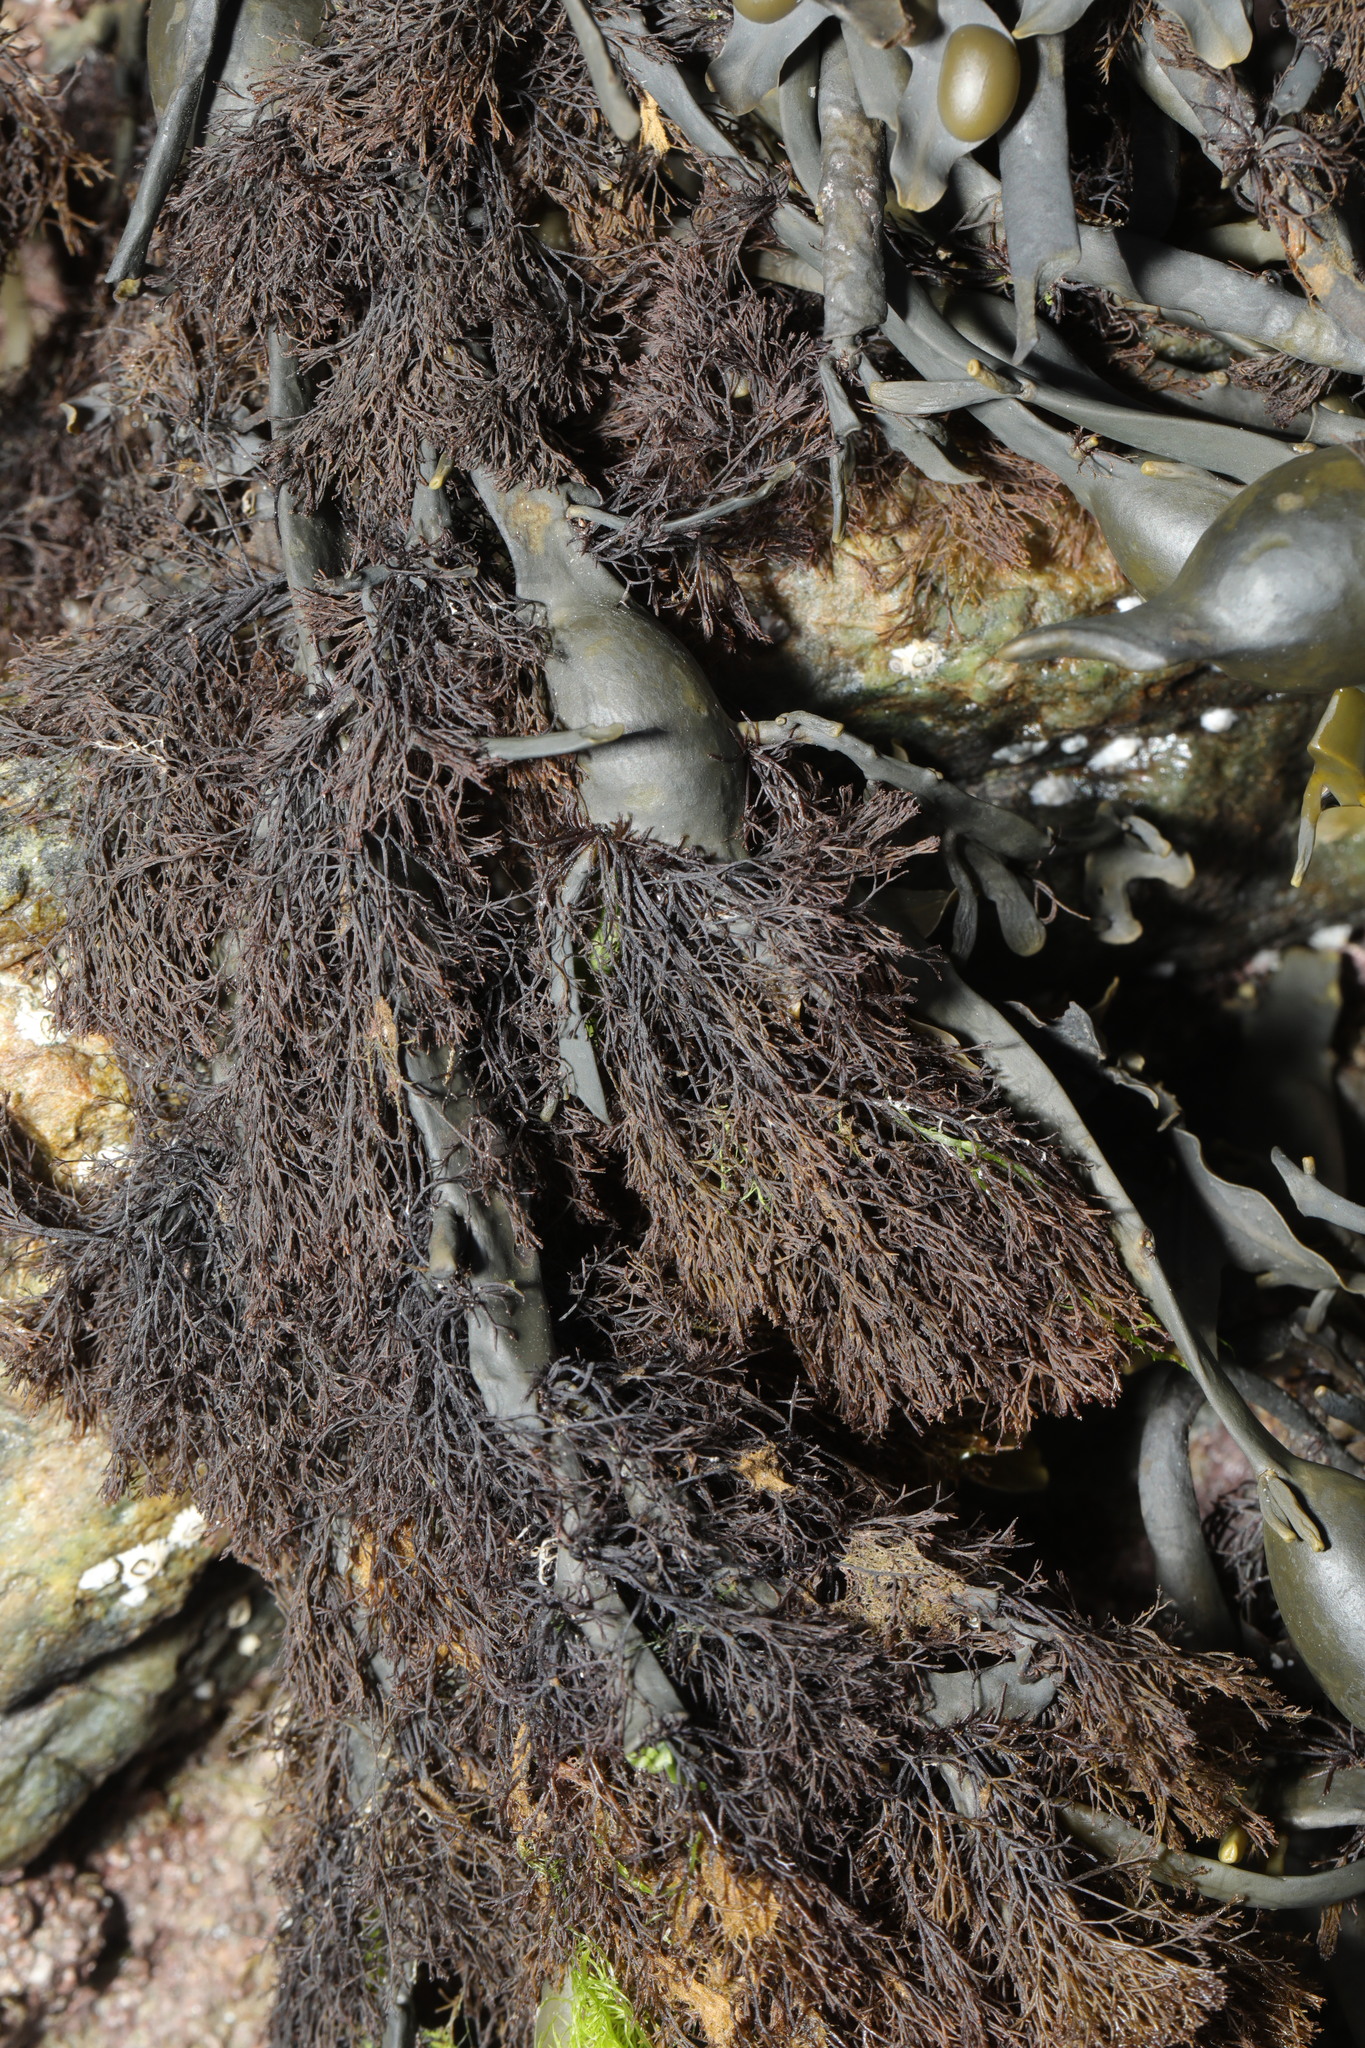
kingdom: Plantae
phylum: Rhodophyta
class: Florideophyceae
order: Ceramiales
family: Rhodomelaceae
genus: Vertebrata
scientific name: Vertebrata lanosa
